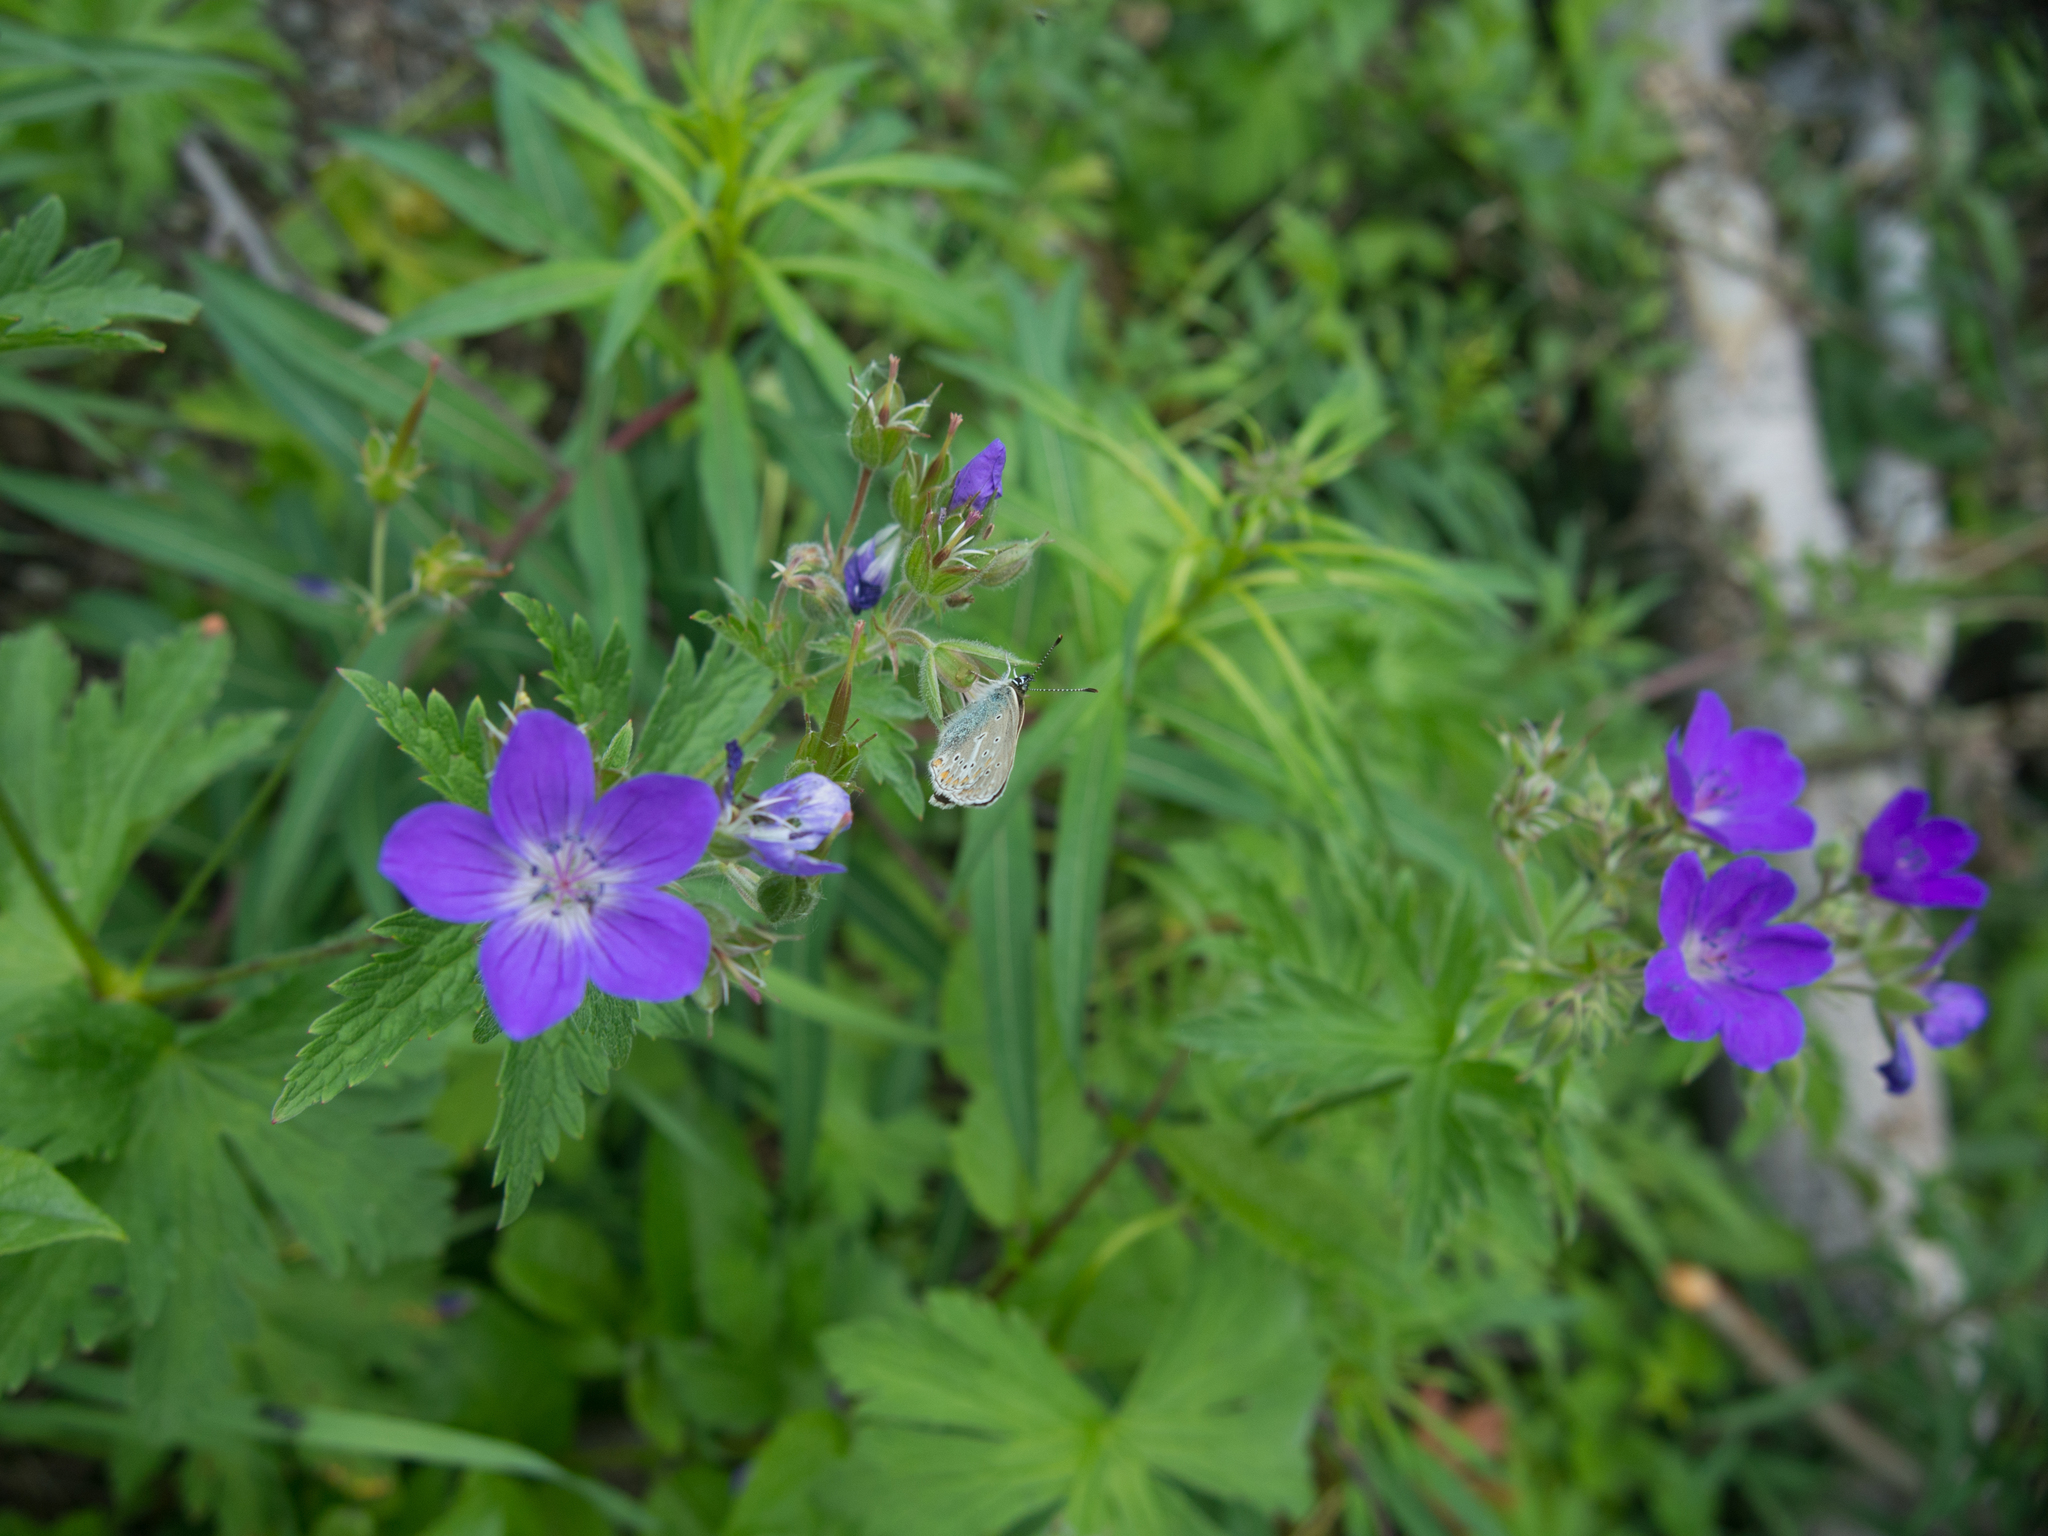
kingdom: Plantae
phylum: Tracheophyta
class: Magnoliopsida
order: Geraniales
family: Geraniaceae
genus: Geranium
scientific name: Geranium sylvaticum
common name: Wood crane's-bill
